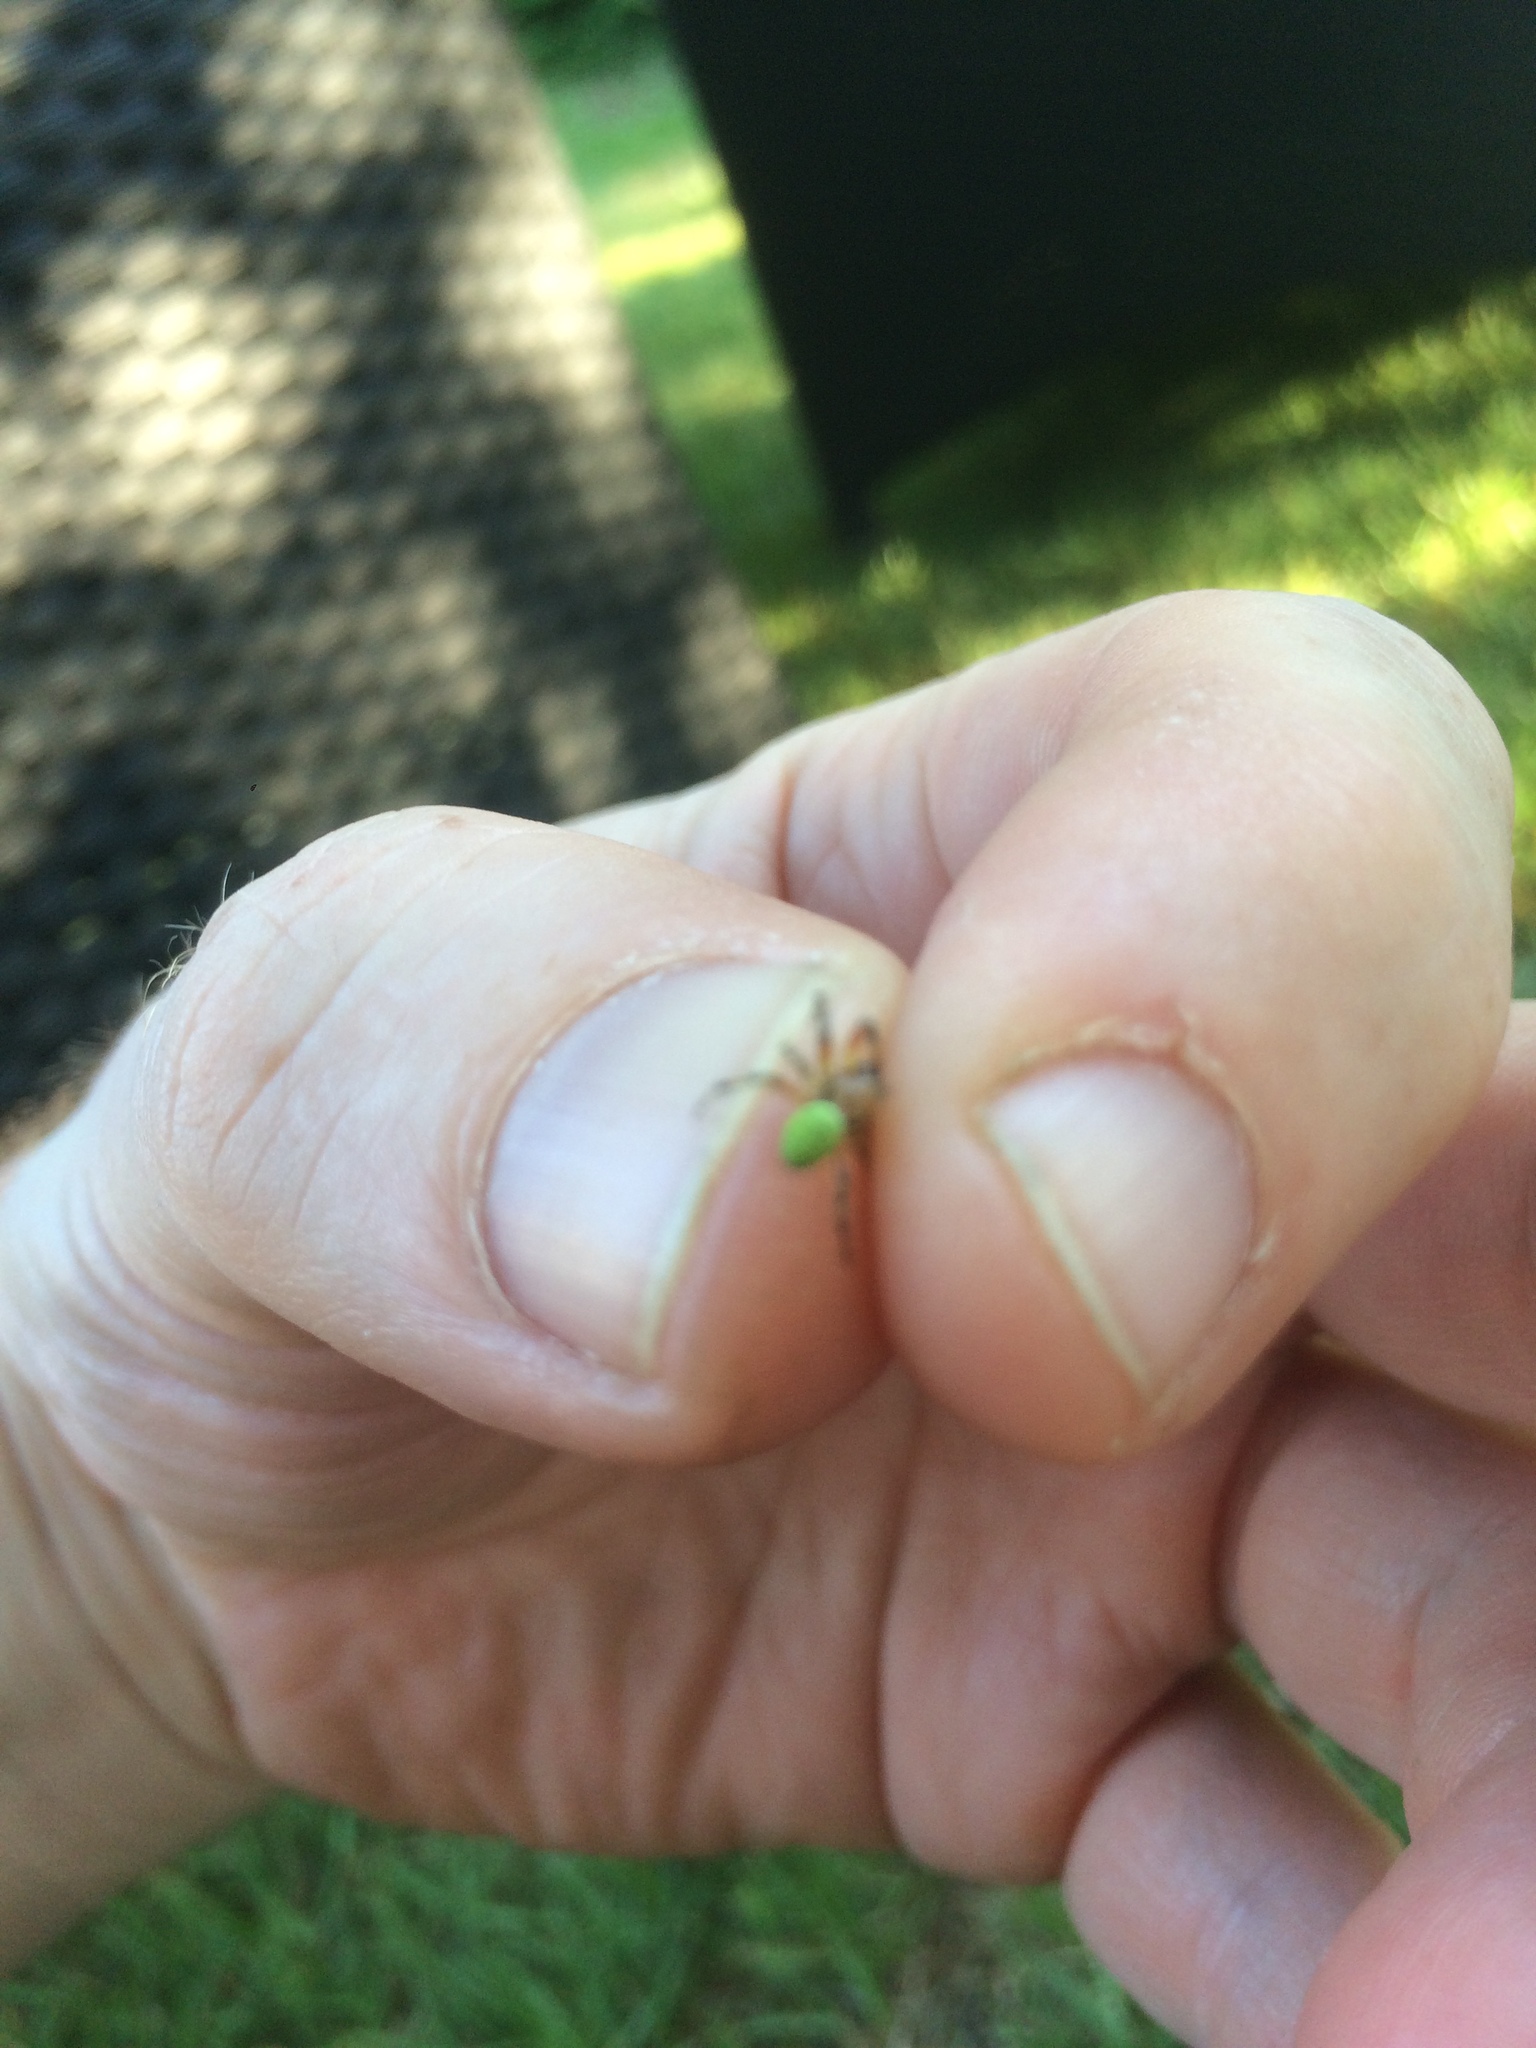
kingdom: Animalia
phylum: Arthropoda
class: Arachnida
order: Araneae
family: Araneidae
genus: Araniella
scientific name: Araniella
